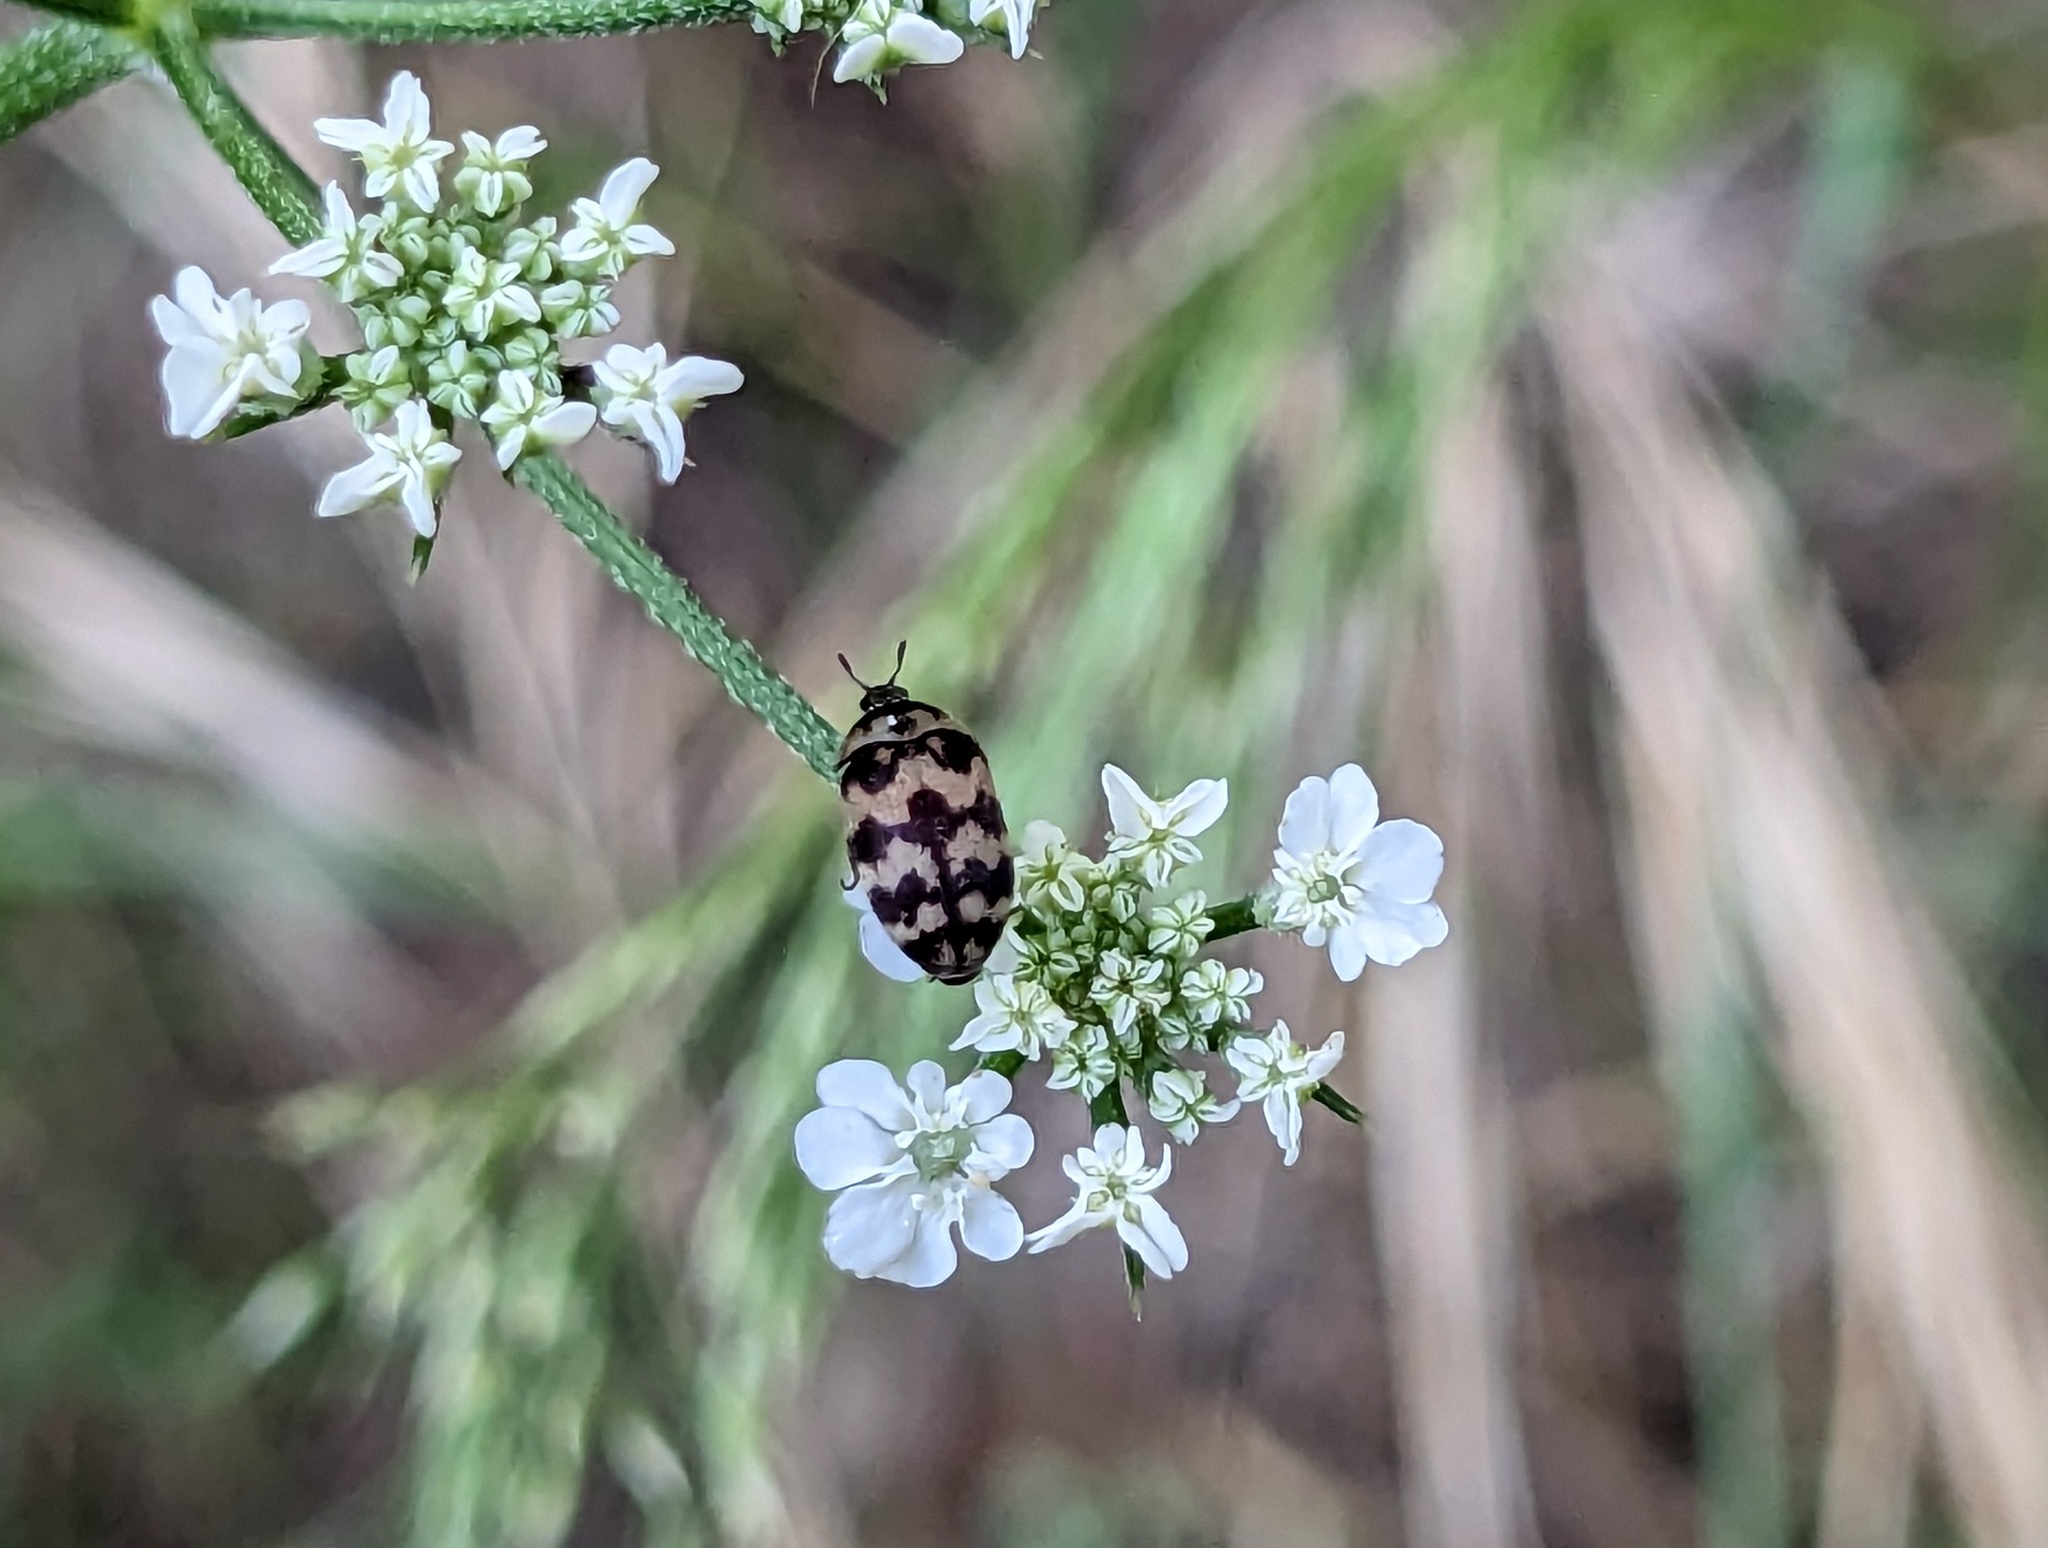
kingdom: Animalia
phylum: Arthropoda
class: Insecta
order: Coleoptera
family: Dermestidae
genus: Attagenus
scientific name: Attagenus trifasciatus
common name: Carpet beetle
